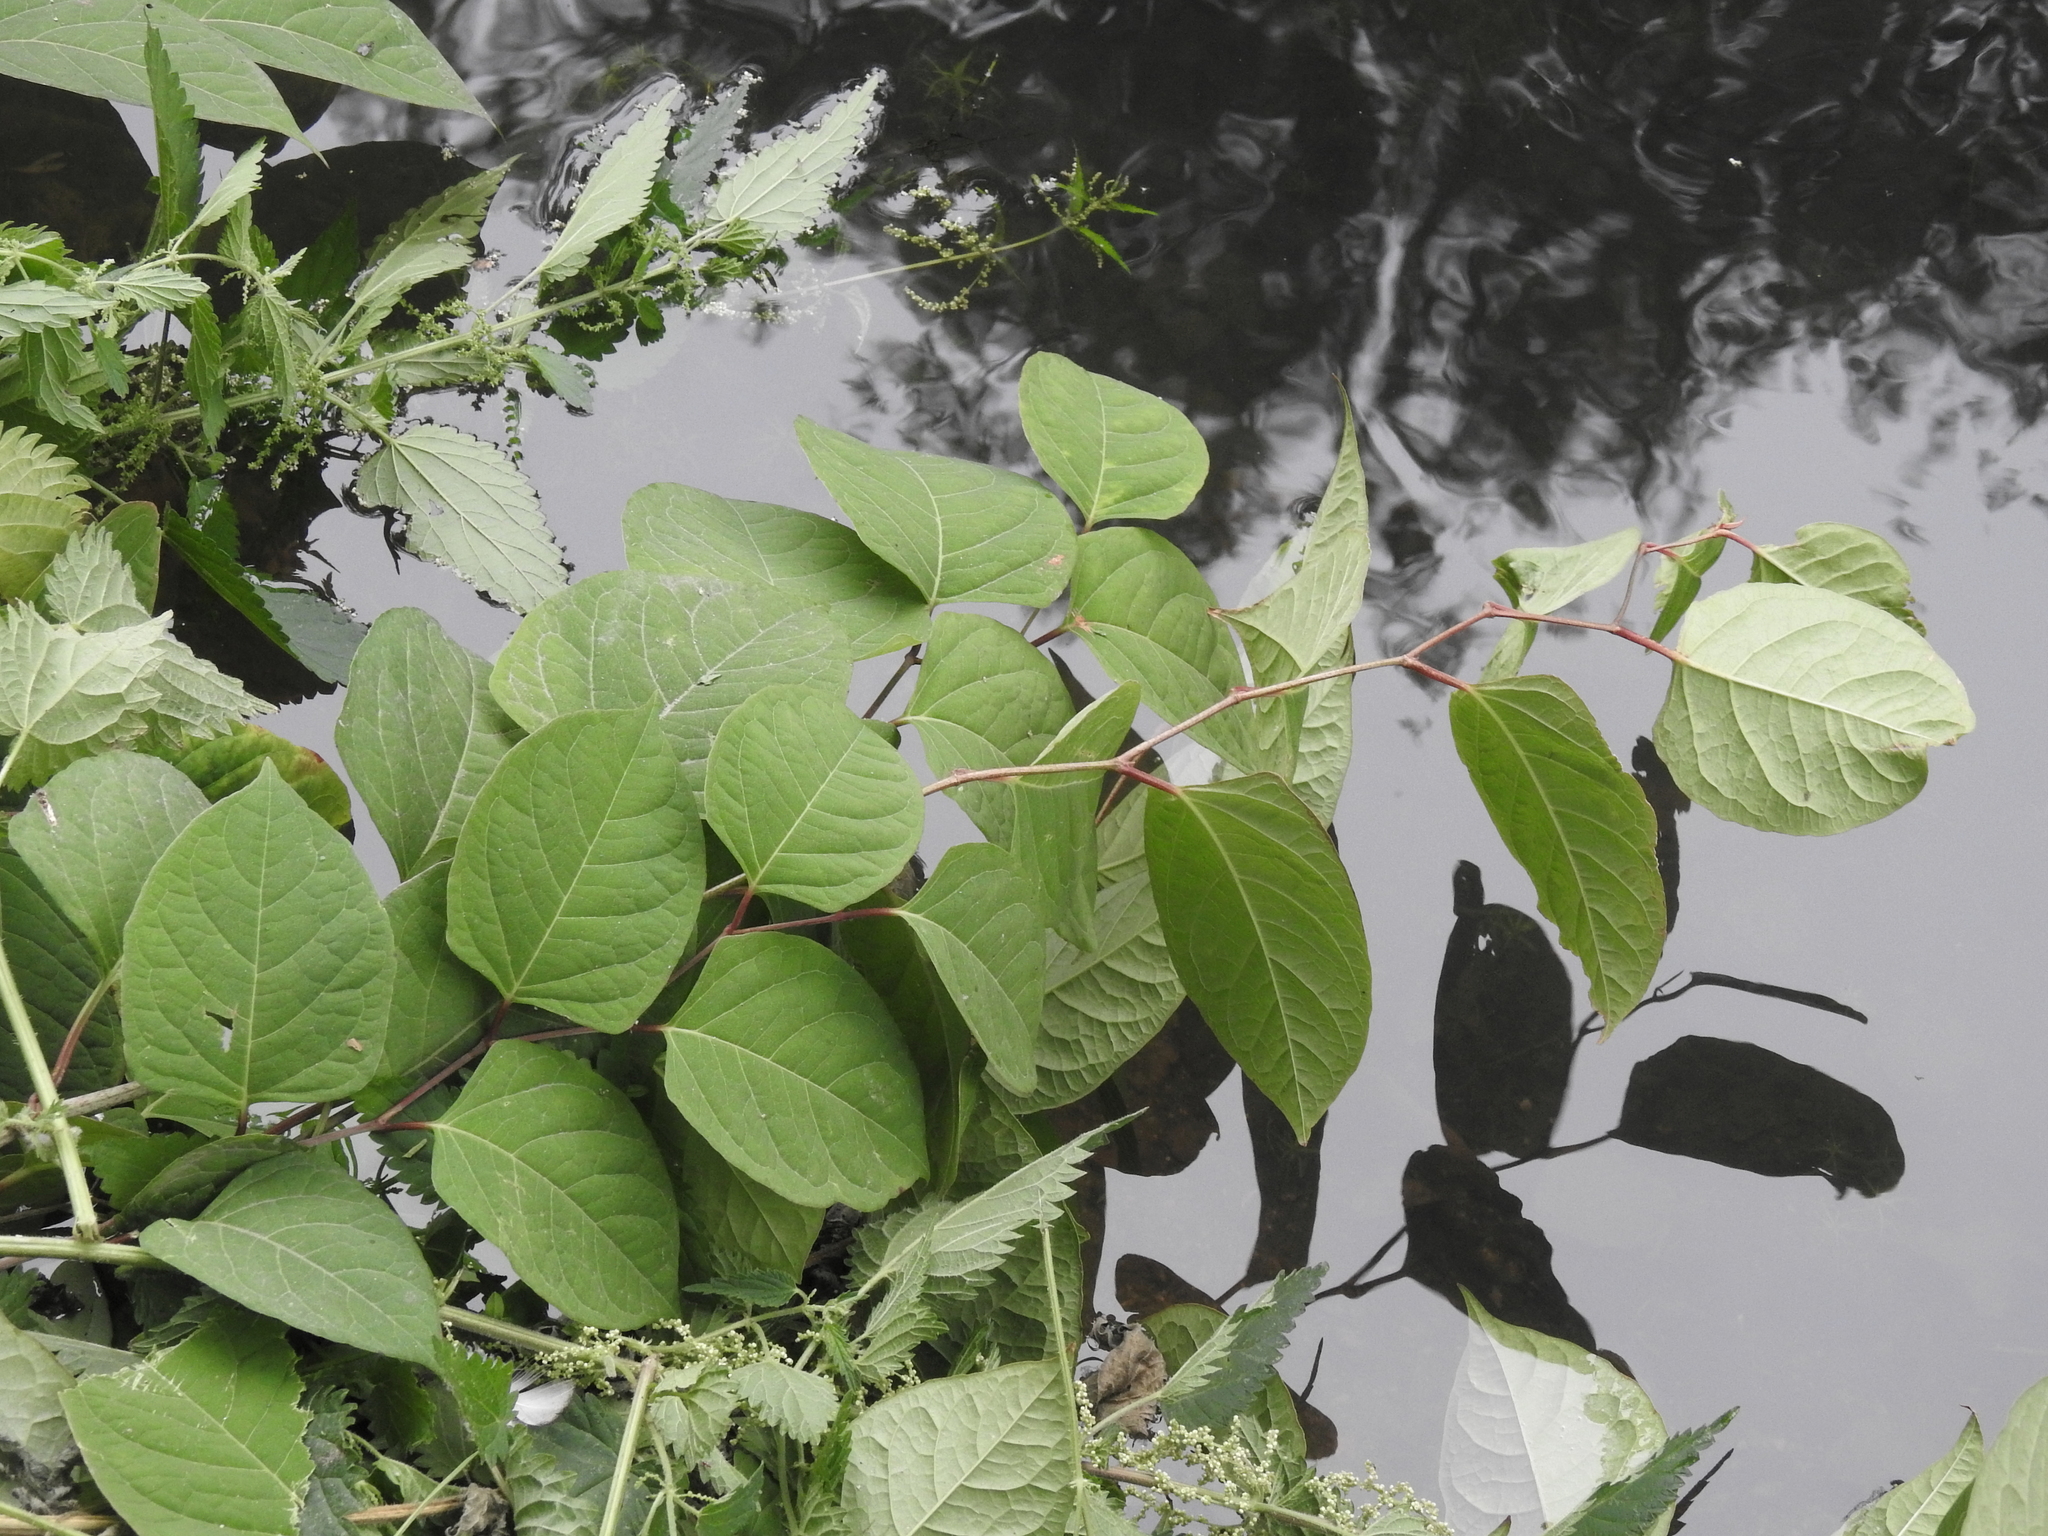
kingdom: Plantae
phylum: Tracheophyta
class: Magnoliopsida
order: Caryophyllales
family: Polygonaceae
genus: Reynoutria
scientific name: Reynoutria japonica
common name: Japanese knotweed
